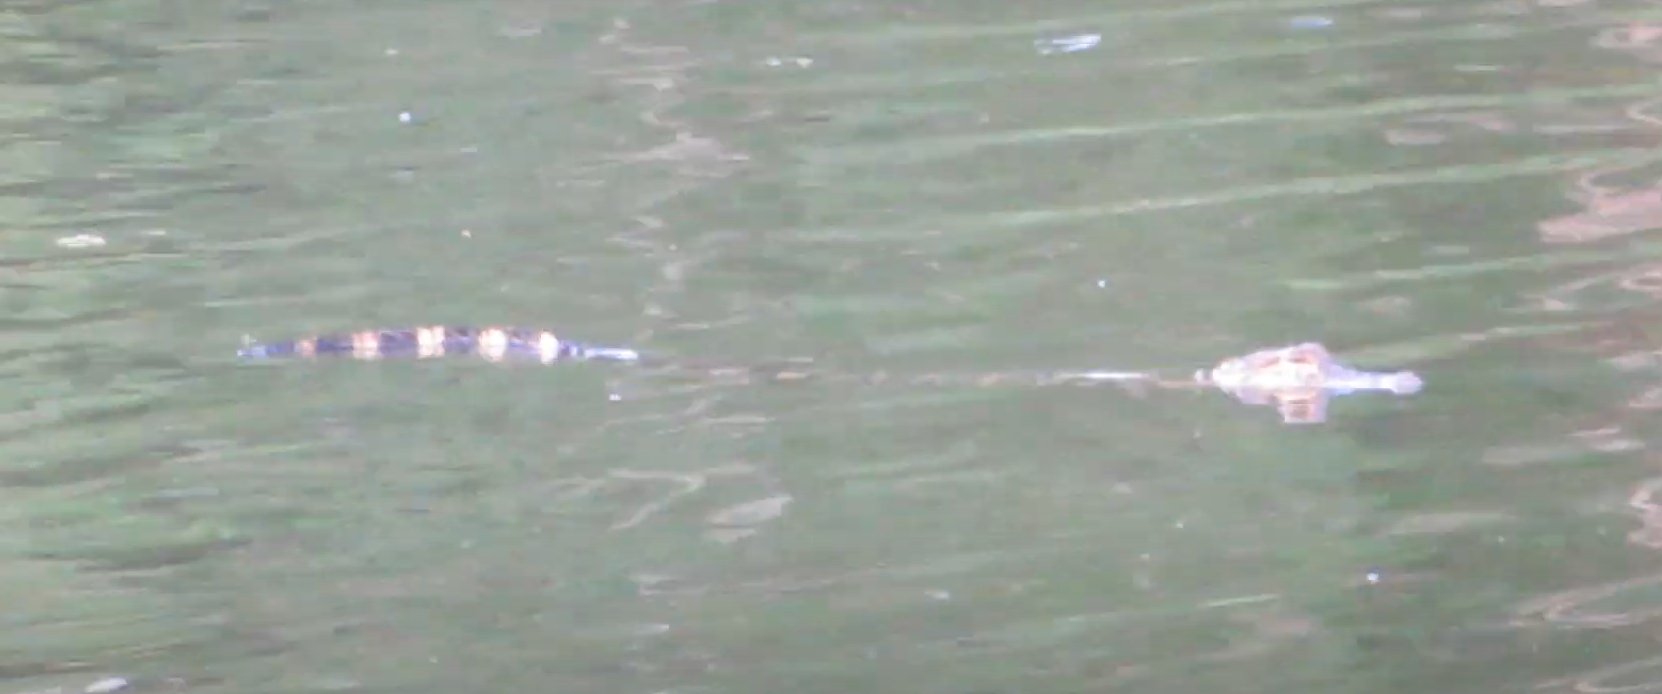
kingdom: Animalia
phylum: Chordata
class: Crocodylia
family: Alligatoridae
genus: Alligator
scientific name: Alligator mississippiensis
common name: American alligator
